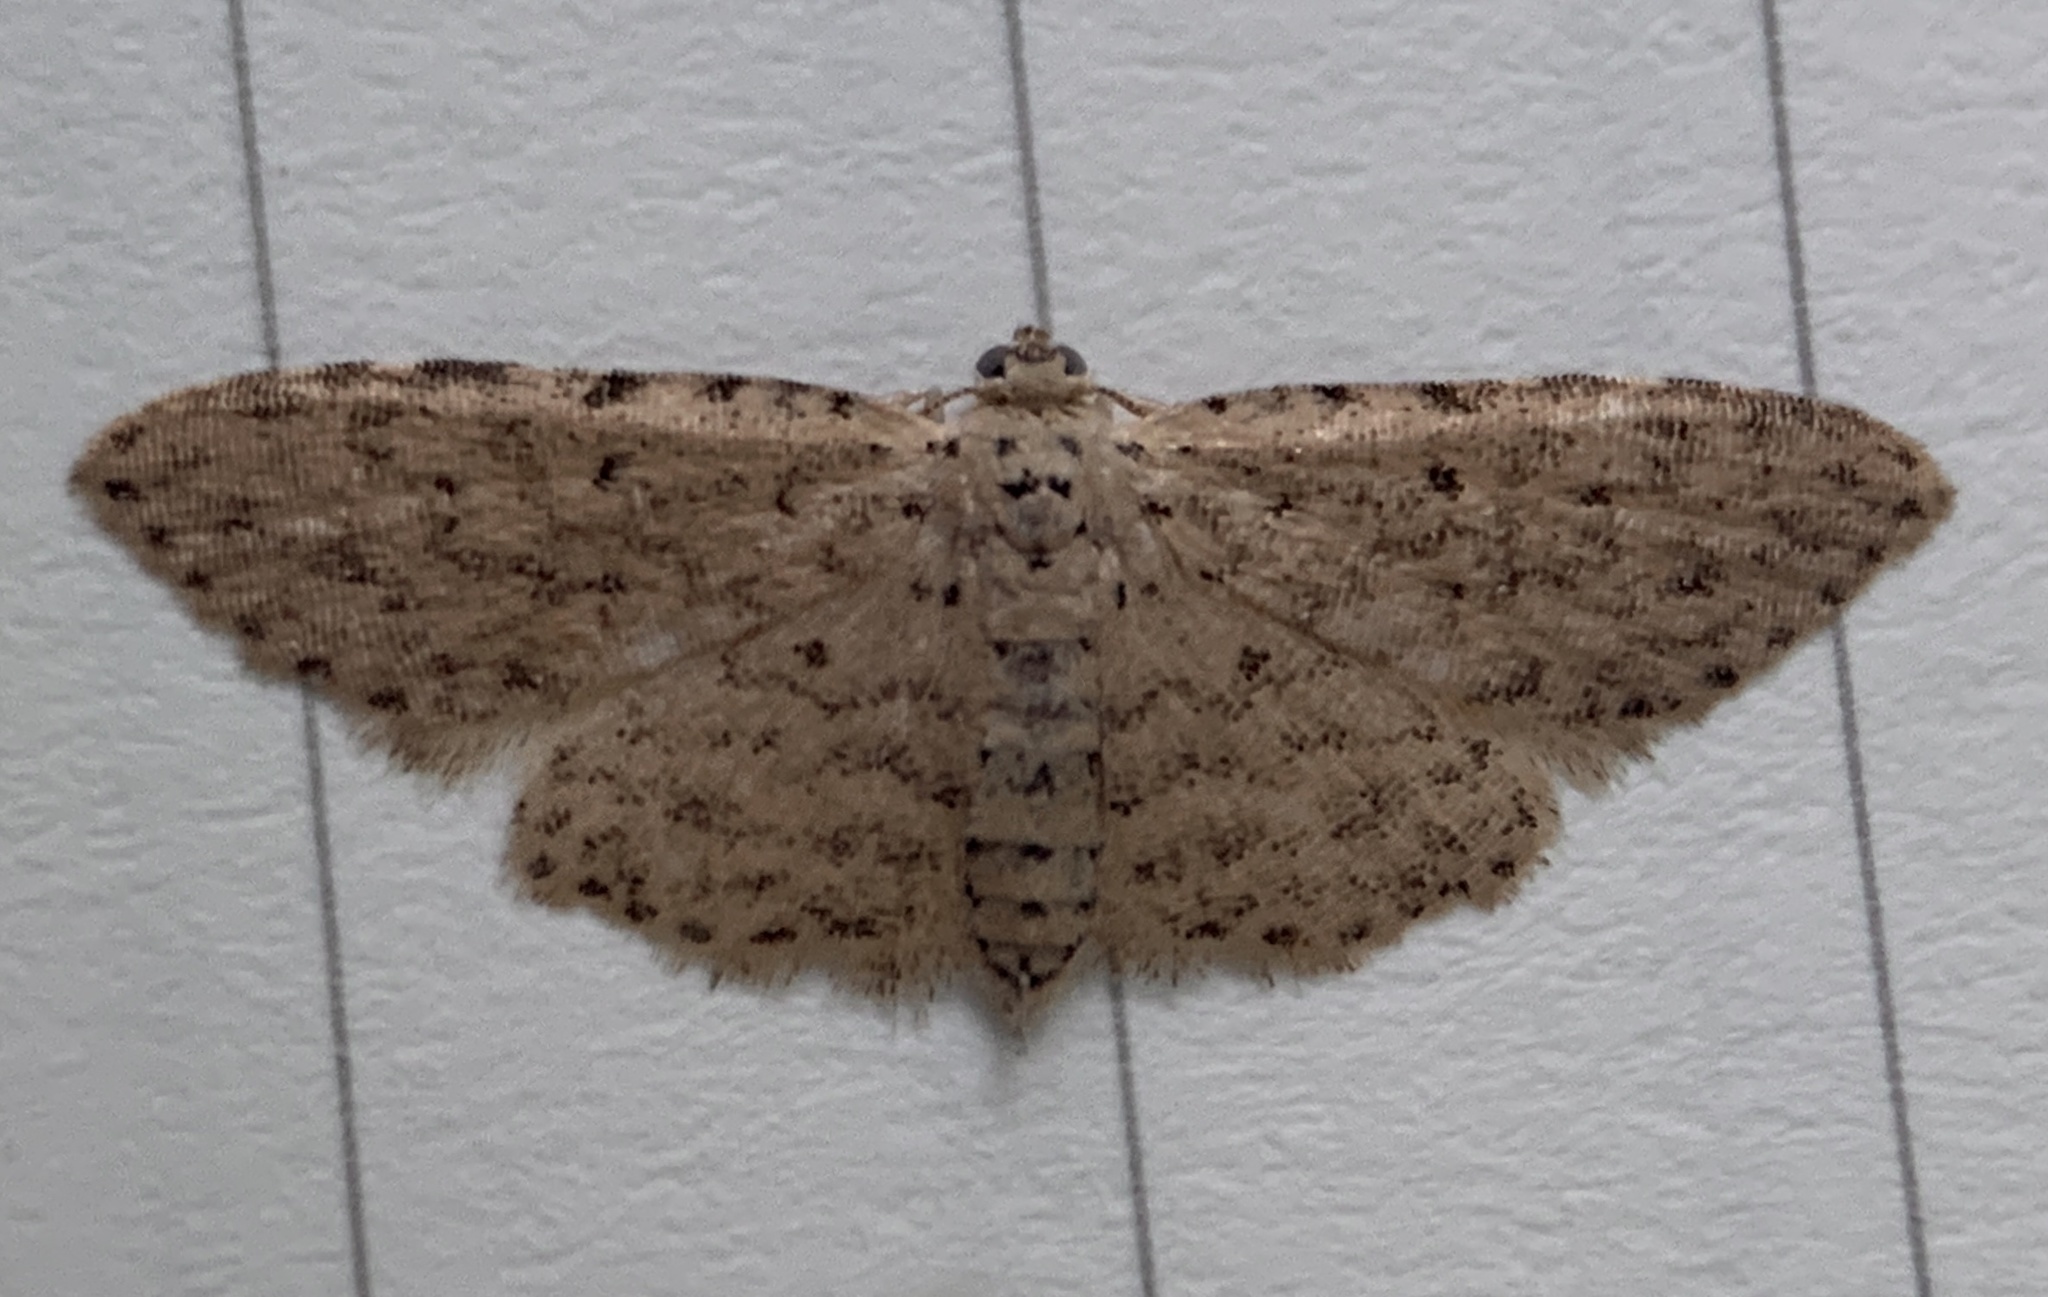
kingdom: Animalia
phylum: Arthropoda
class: Insecta
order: Lepidoptera
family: Erebidae
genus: Sigela
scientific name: Sigela lynx
